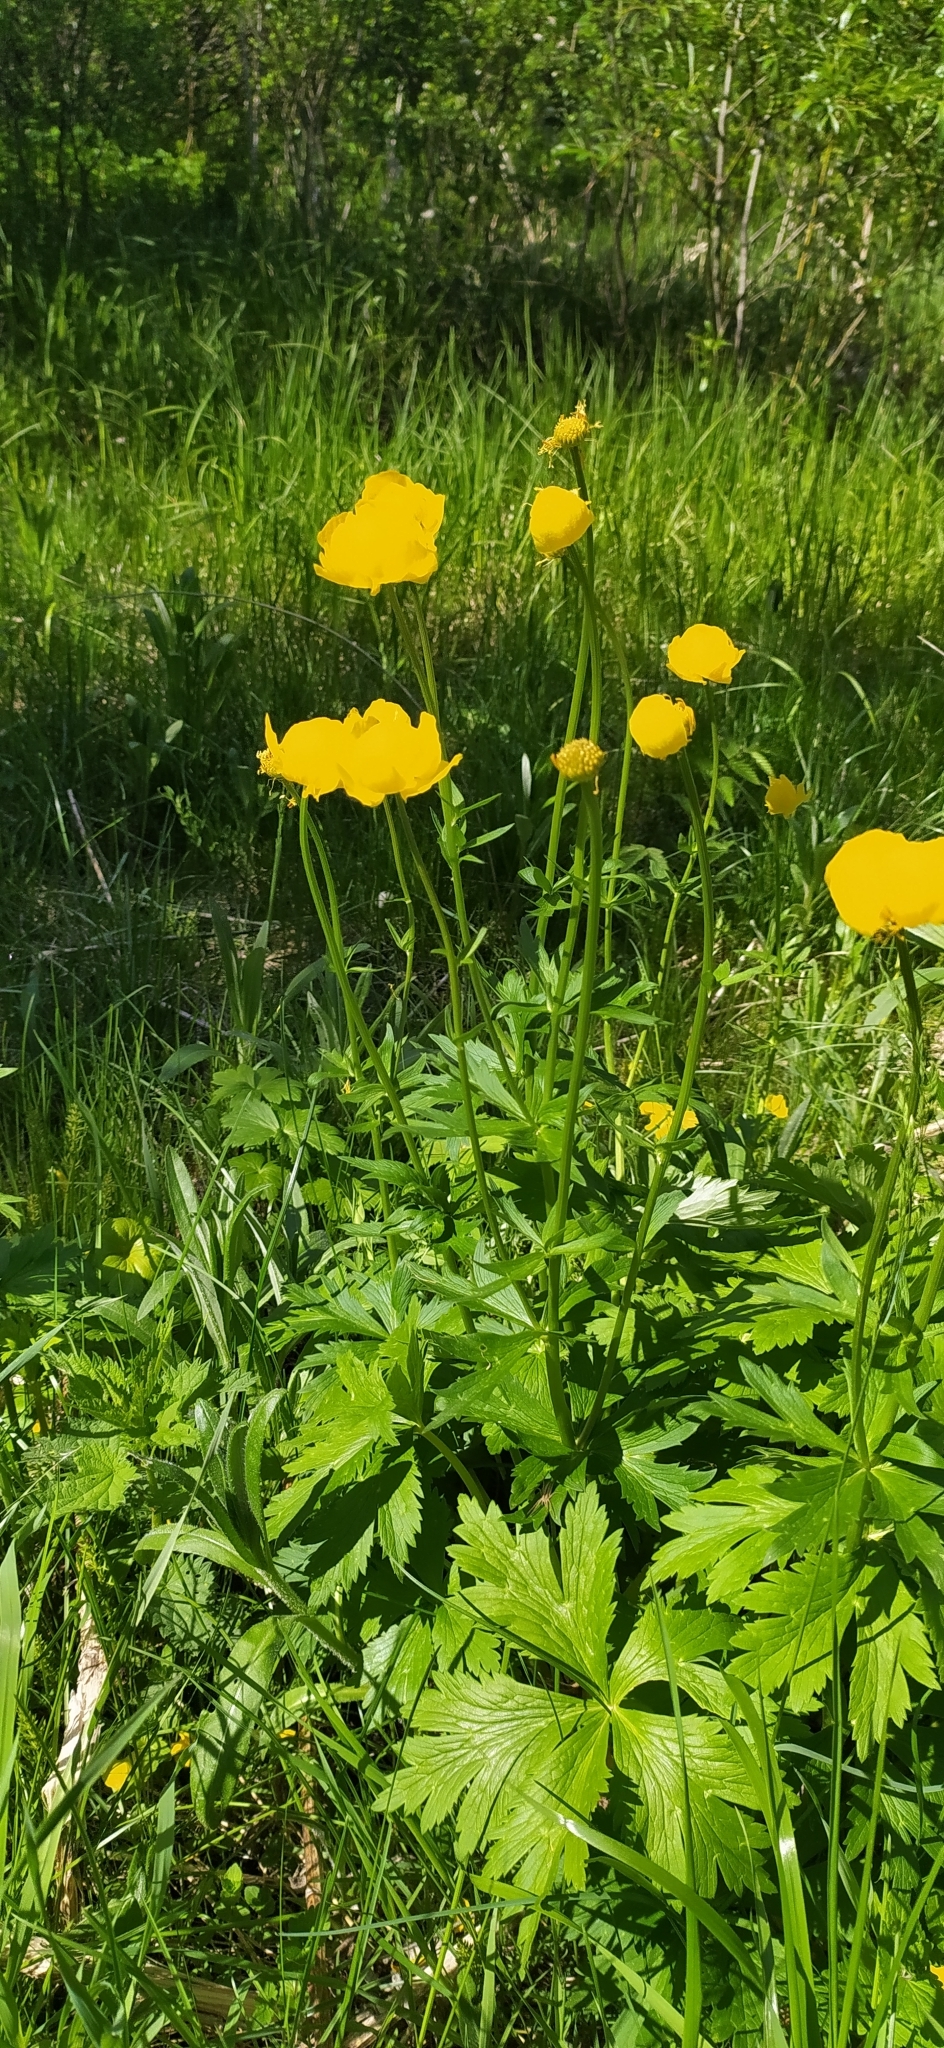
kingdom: Plantae
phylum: Tracheophyta
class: Magnoliopsida
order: Ranunculales
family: Ranunculaceae
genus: Trollius
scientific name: Trollius europaeus
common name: European globeflower
